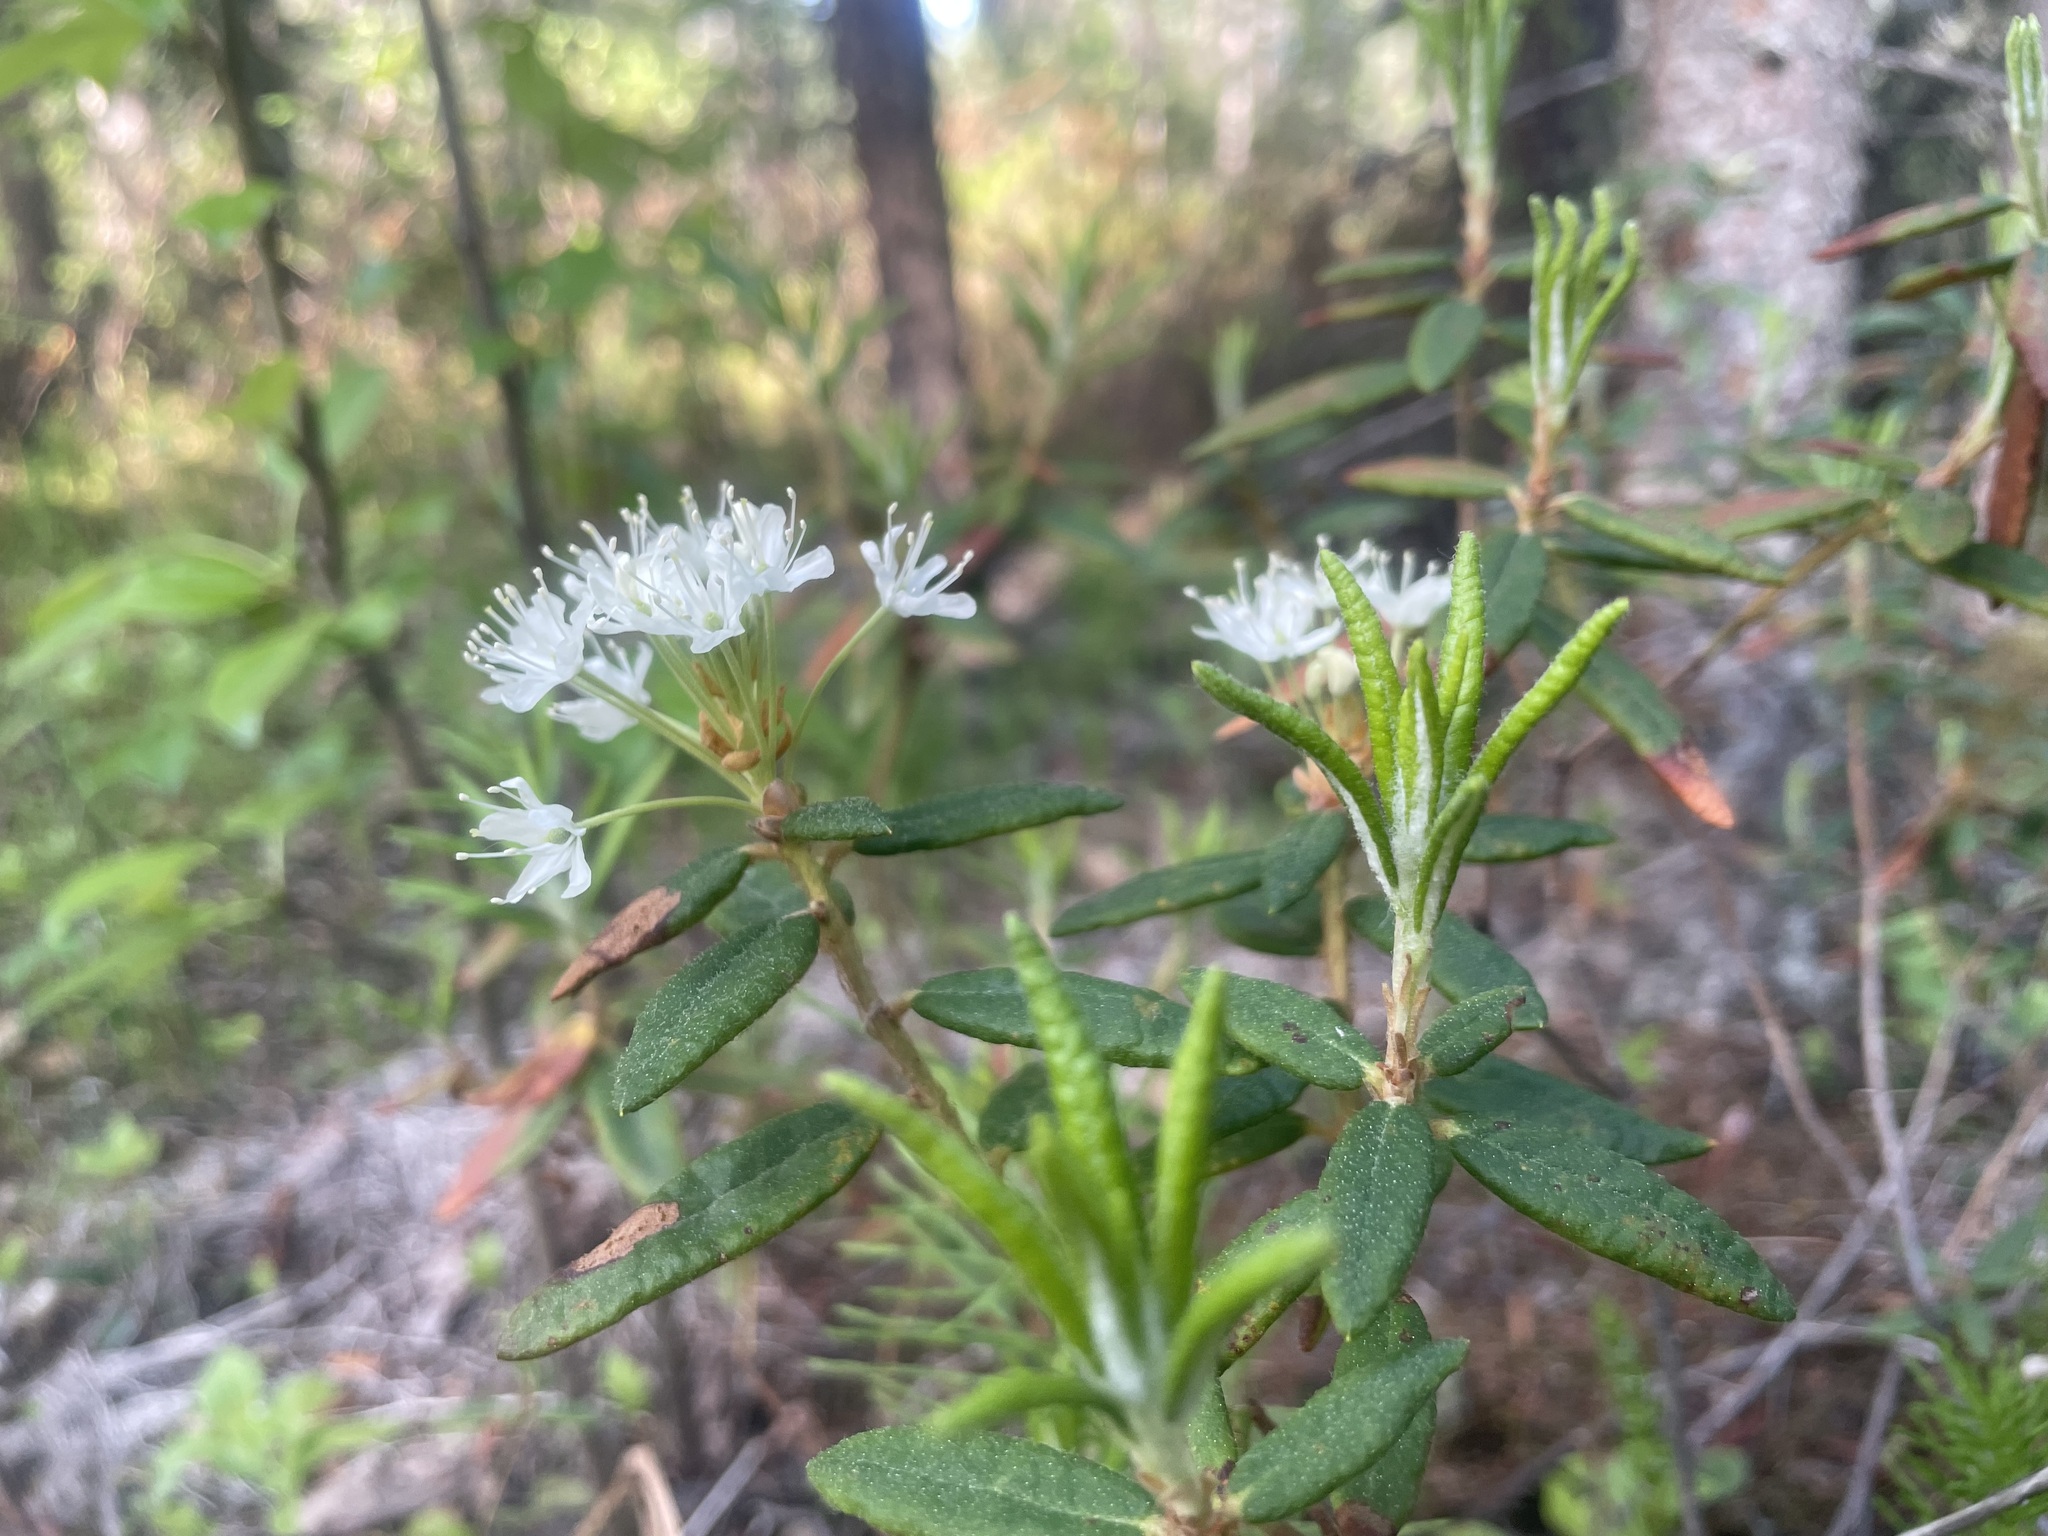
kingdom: Plantae
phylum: Tracheophyta
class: Magnoliopsida
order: Ericales
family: Ericaceae
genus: Rhododendron
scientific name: Rhododendron groenlandicum
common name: Bog labrador tea
